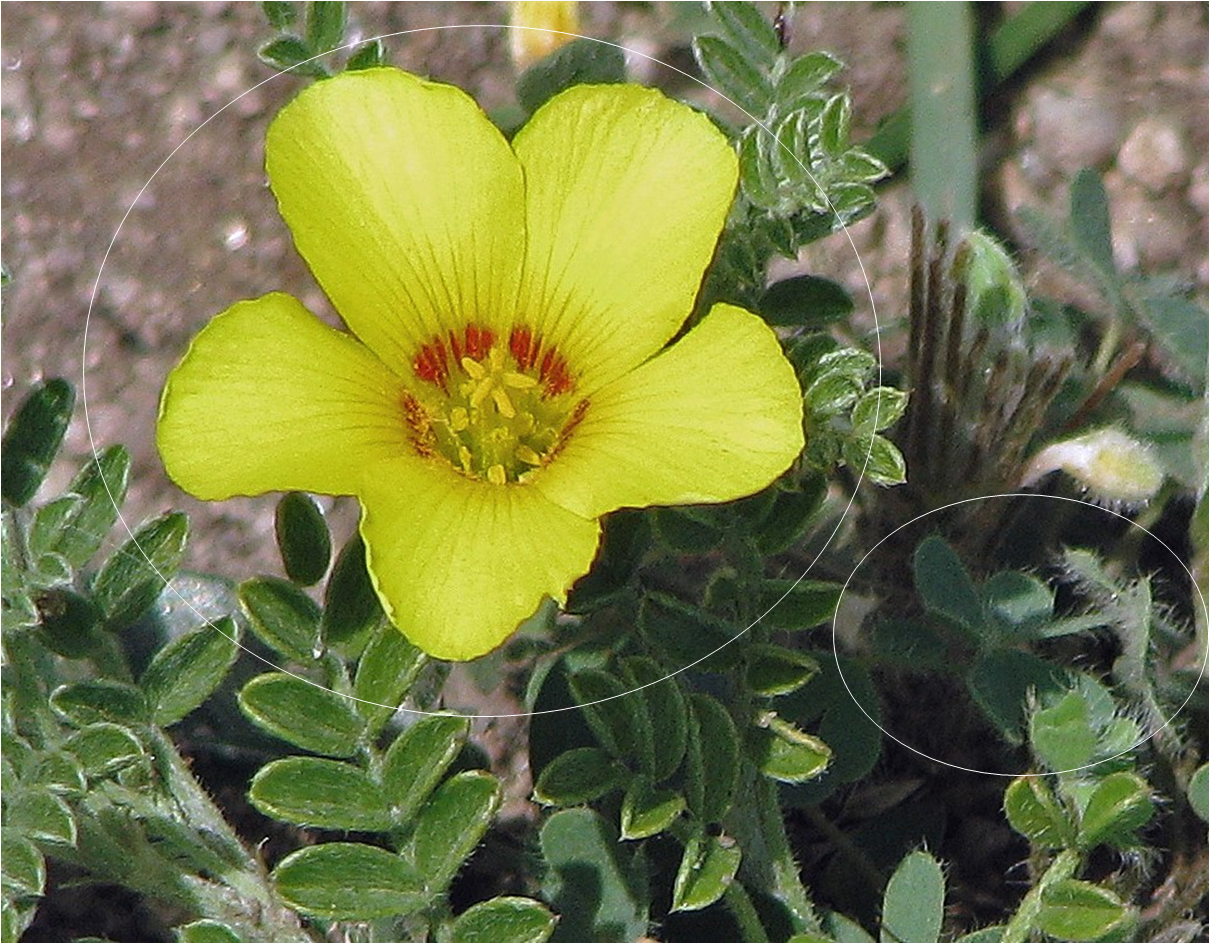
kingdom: Plantae
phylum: Tracheophyta
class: Magnoliopsida
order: Oxalidales
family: Oxalidaceae
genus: Oxalis
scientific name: Oxalis famatinae
